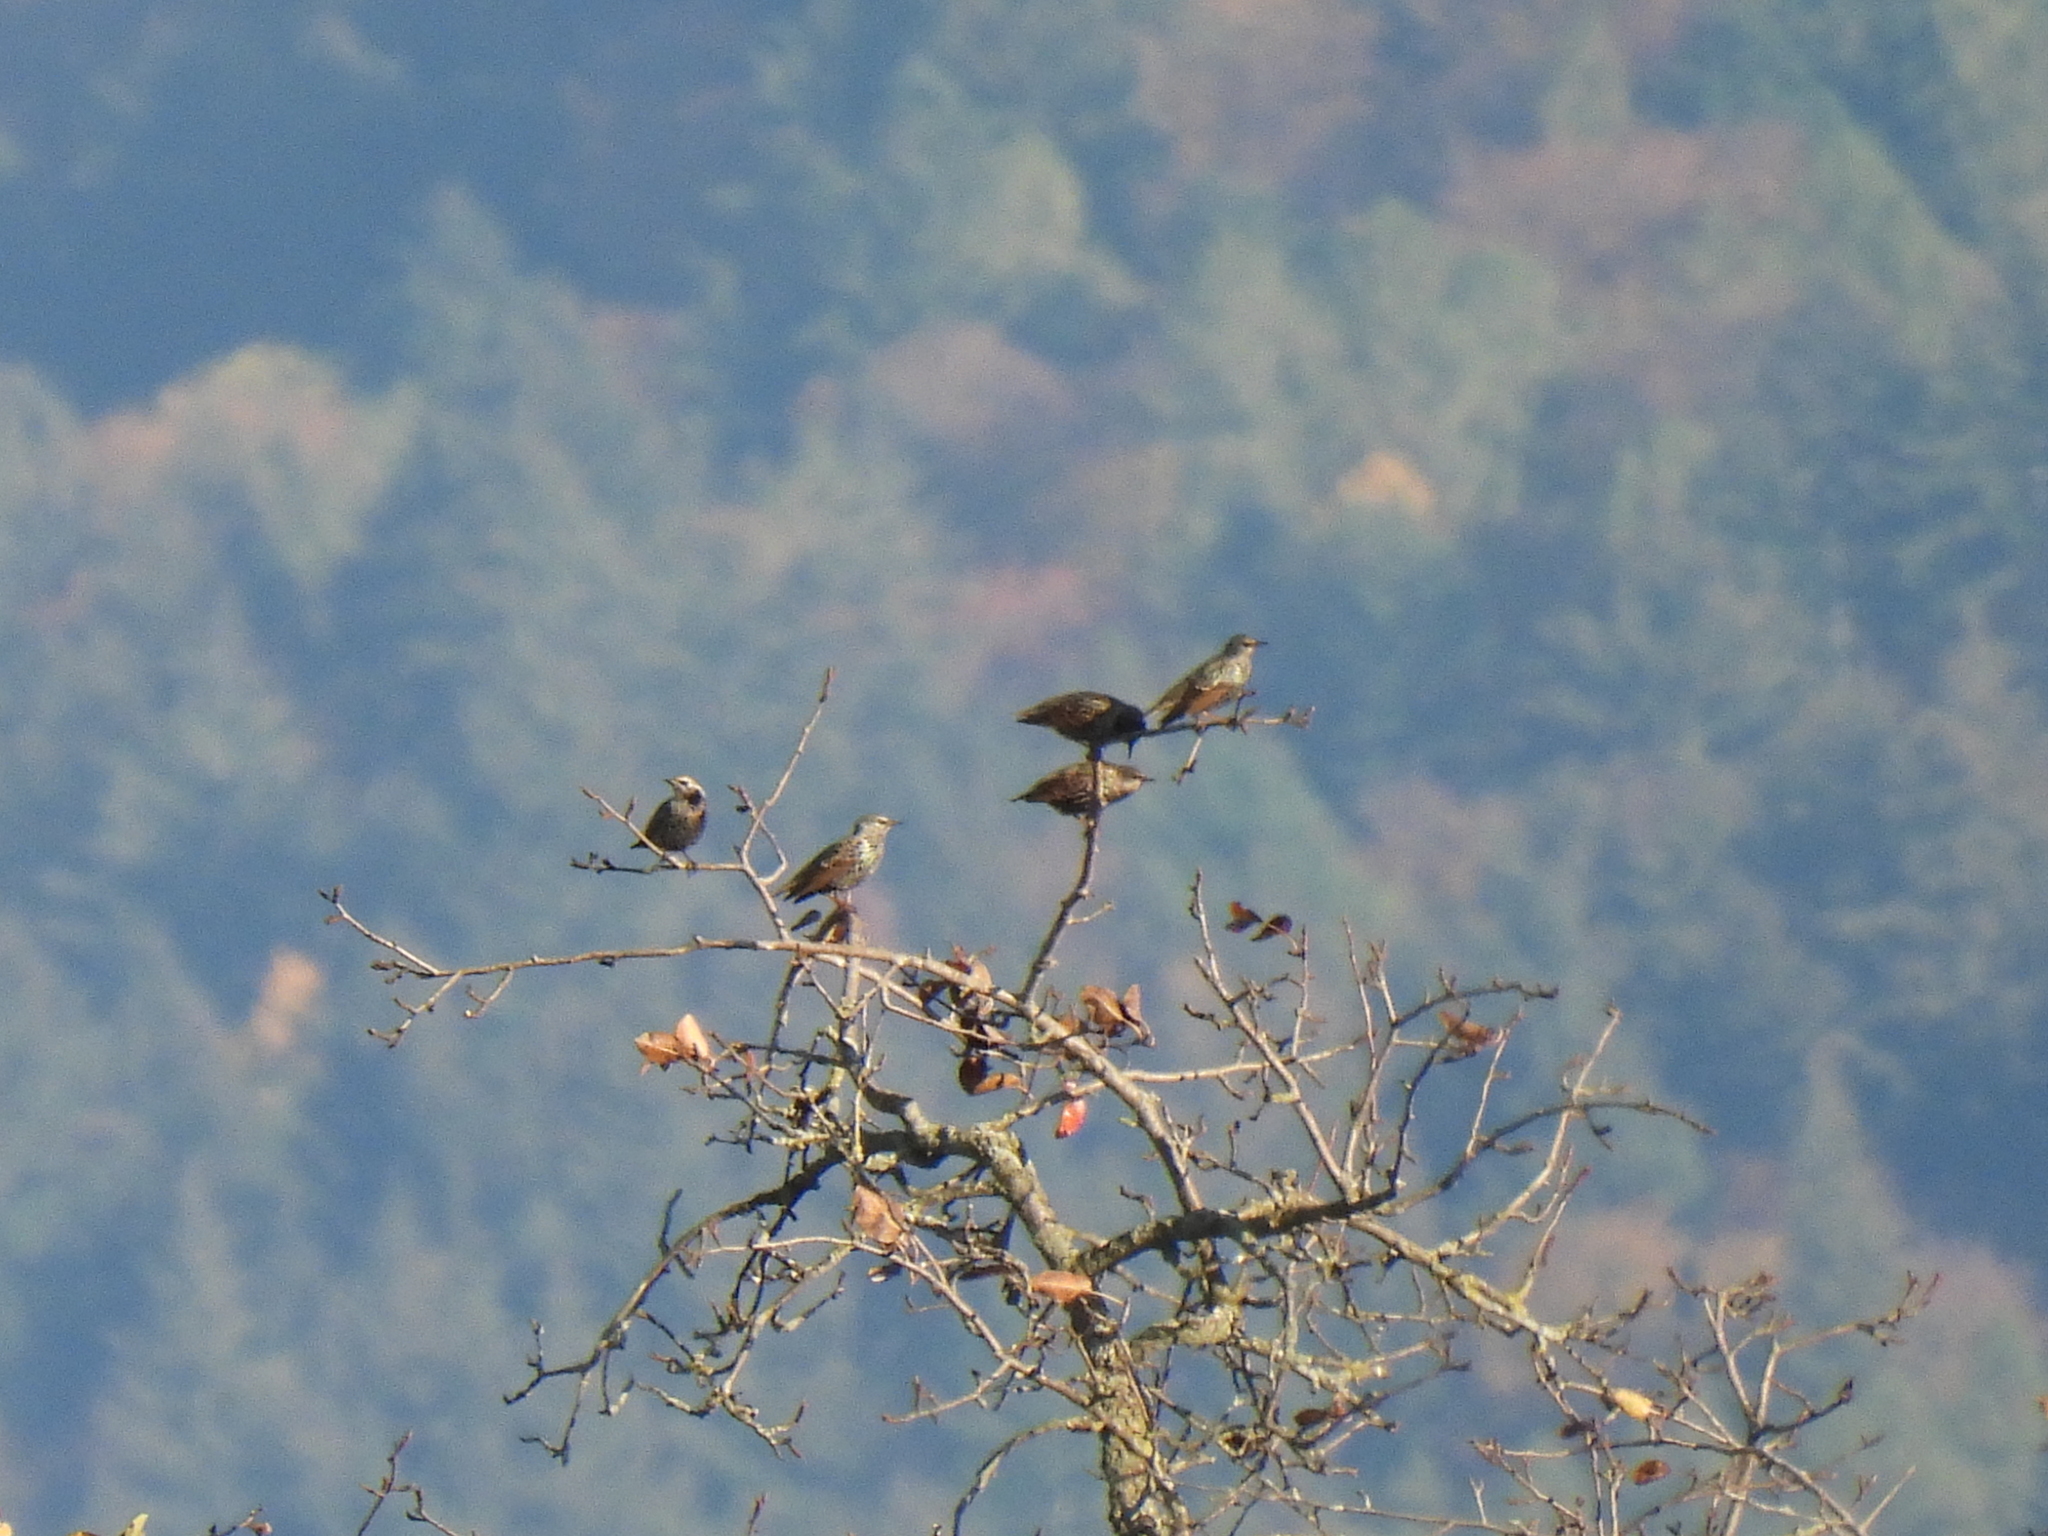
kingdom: Animalia
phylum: Chordata
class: Aves
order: Passeriformes
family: Sturnidae
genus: Sturnus
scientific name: Sturnus vulgaris
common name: Common starling
